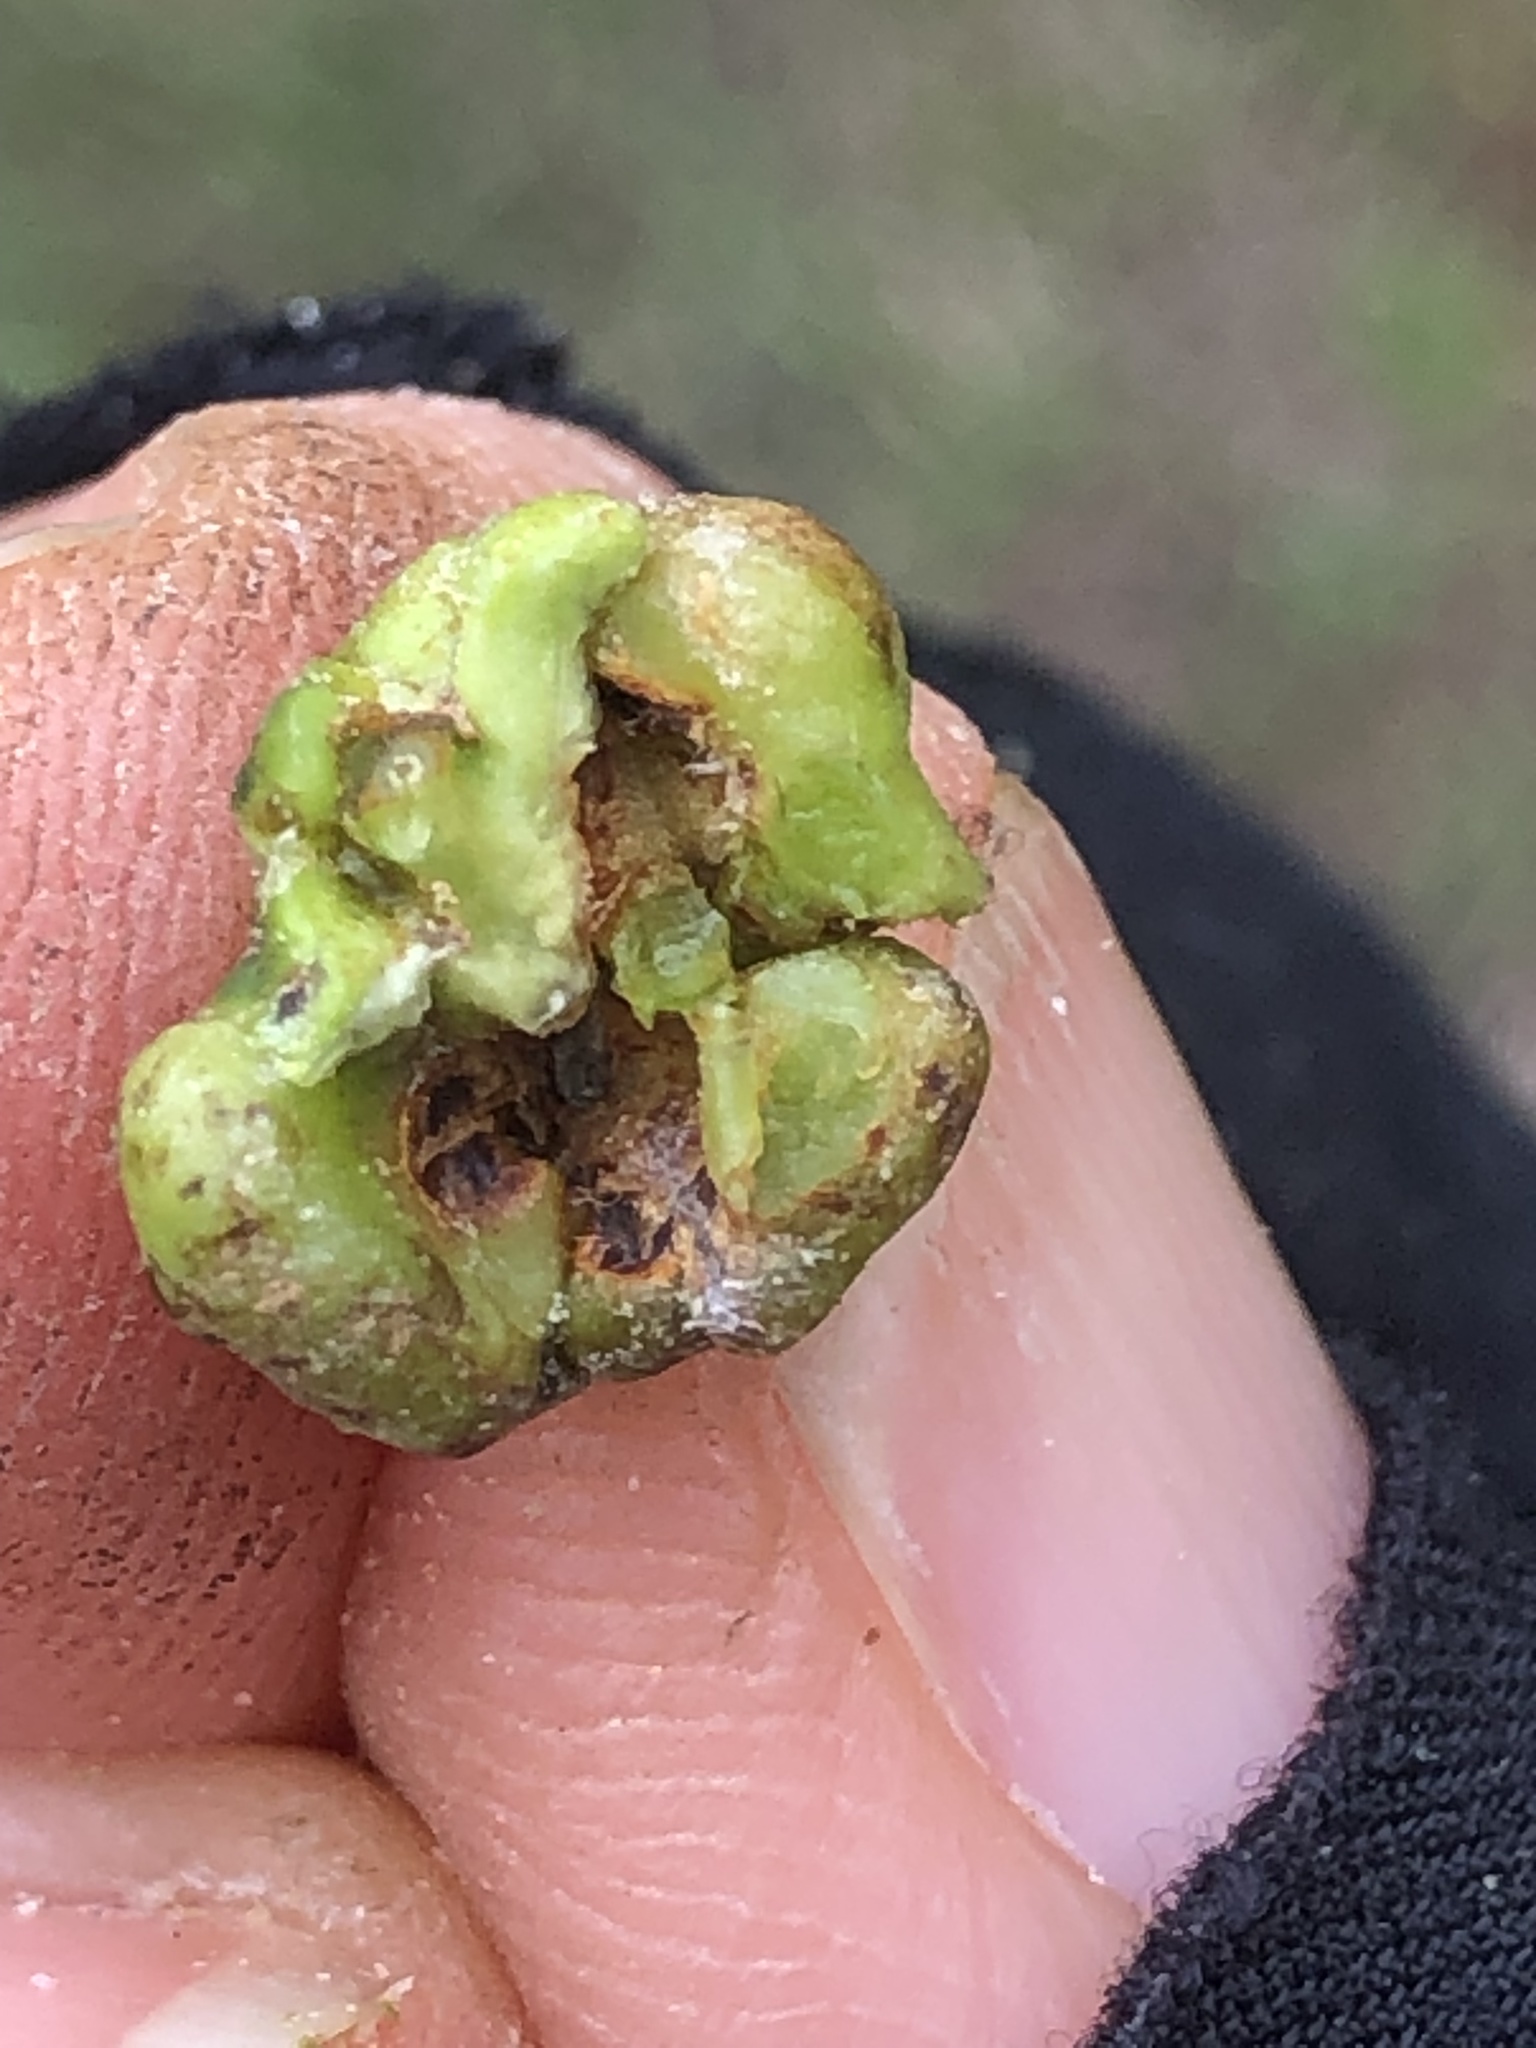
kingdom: Animalia
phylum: Arthropoda
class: Insecta
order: Diptera
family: Cecidomyiidae
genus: Dasineura
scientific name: Dasineura
